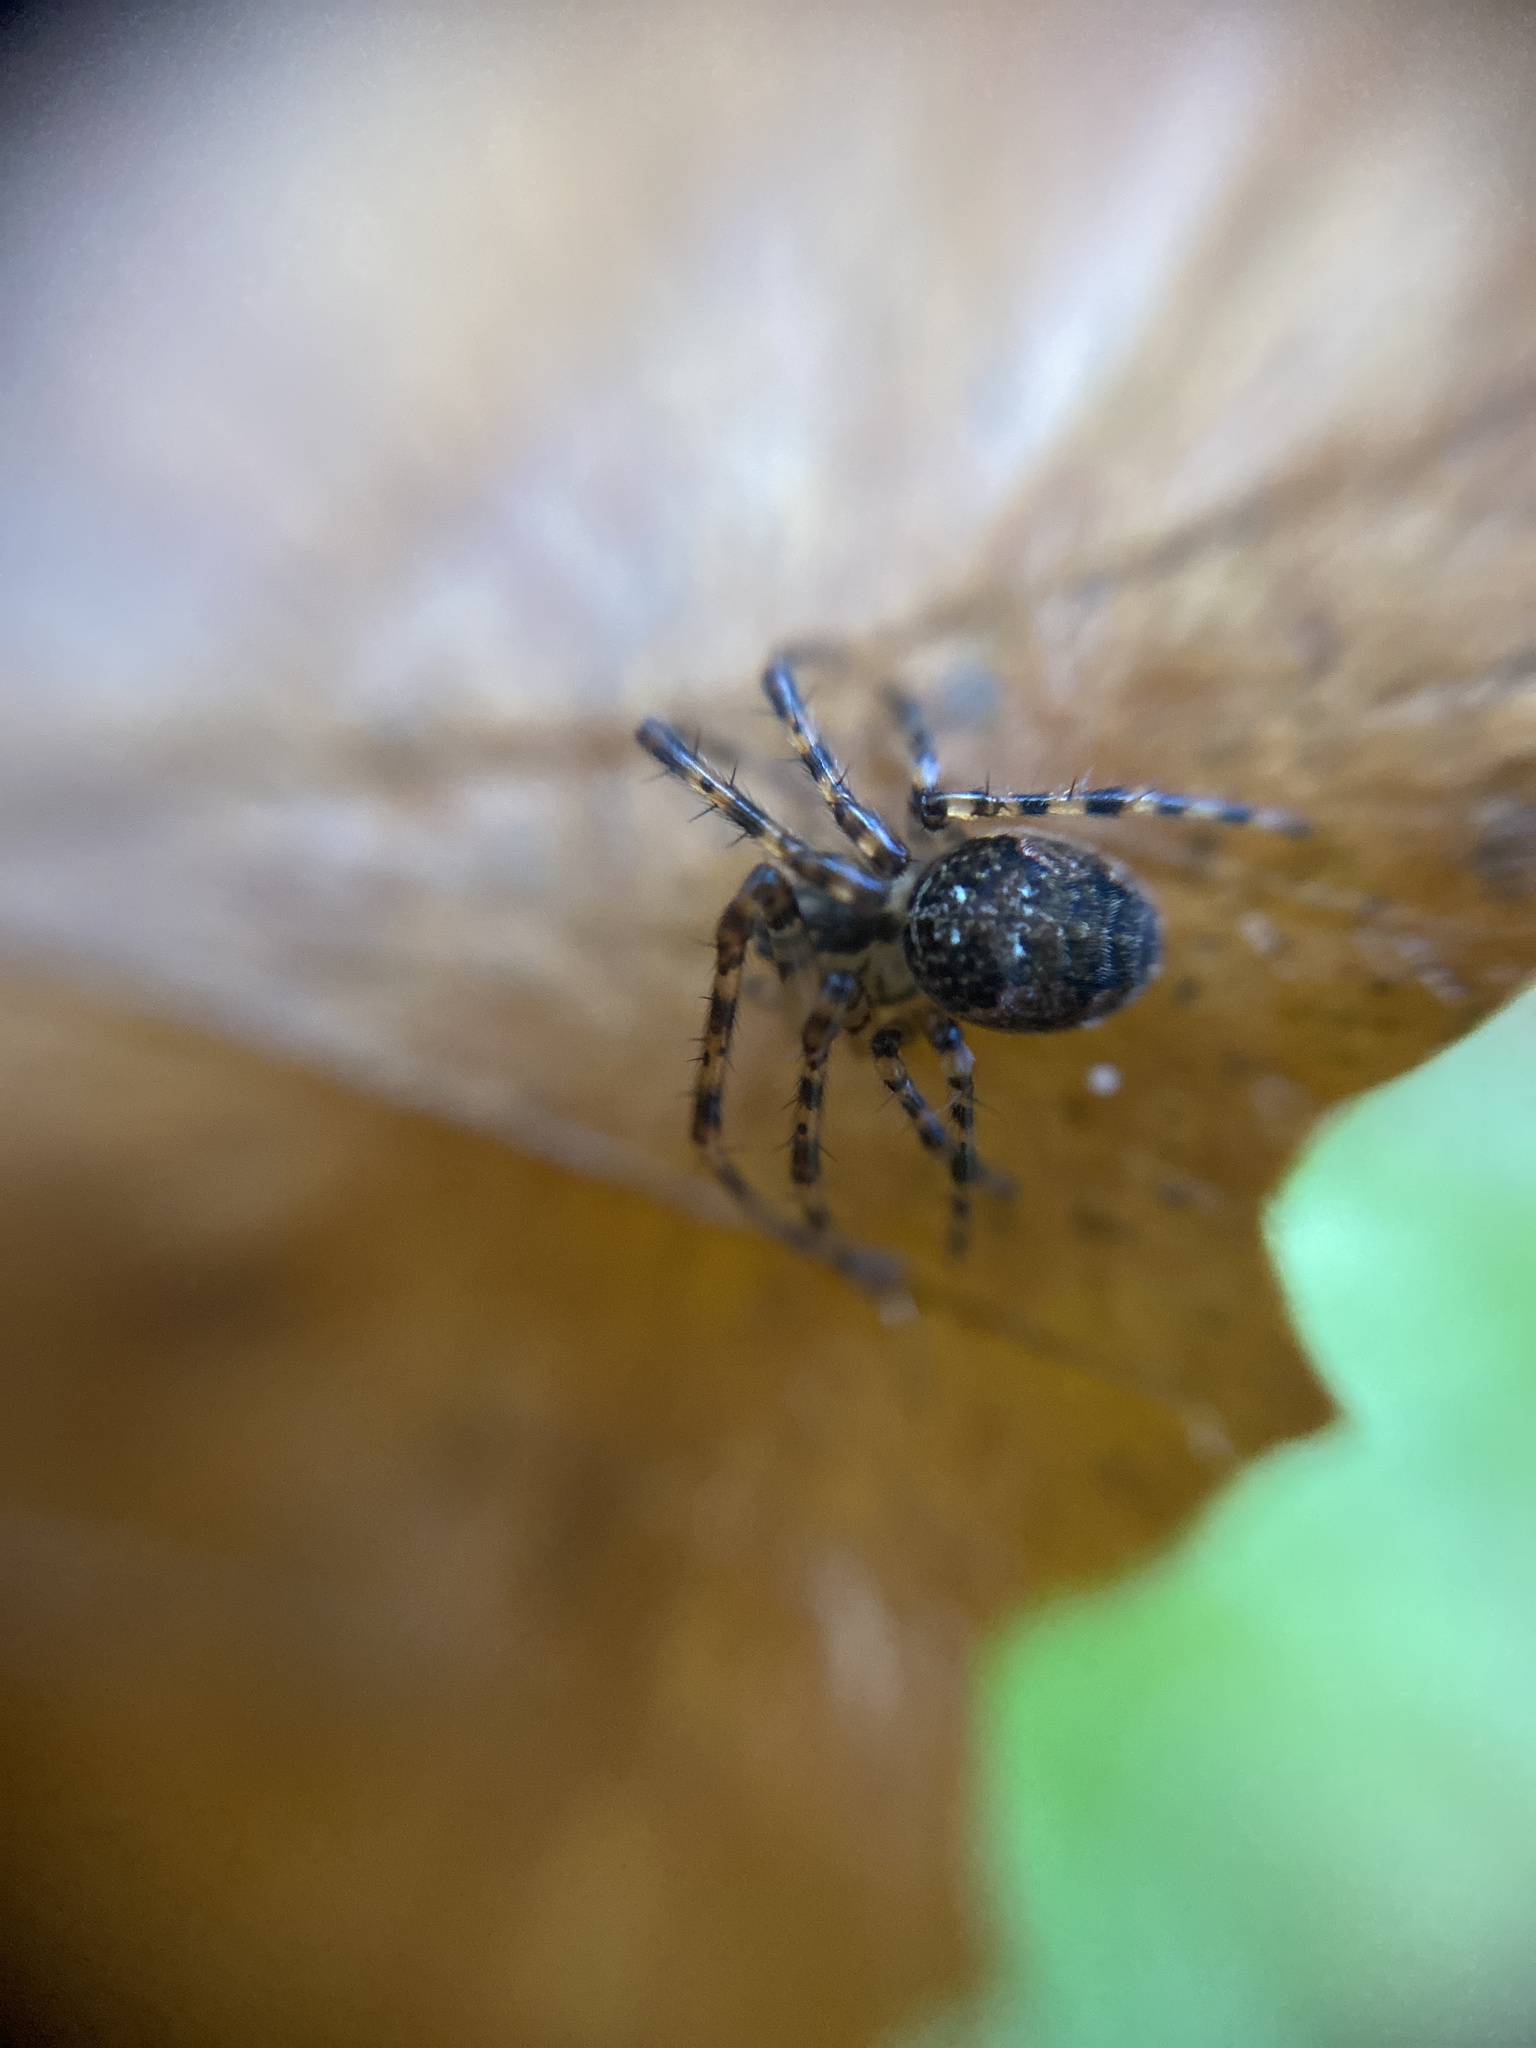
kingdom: Animalia
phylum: Arthropoda
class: Arachnida
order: Araneae
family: Tetragnathidae
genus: Metellina
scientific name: Metellina merianae
